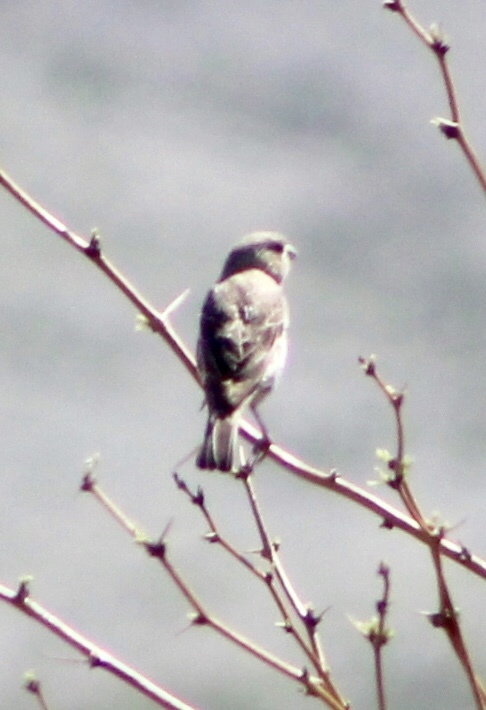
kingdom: Animalia
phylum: Chordata
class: Aves
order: Passeriformes
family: Fringillidae
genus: Haemorhous
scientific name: Haemorhous mexicanus
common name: House finch
